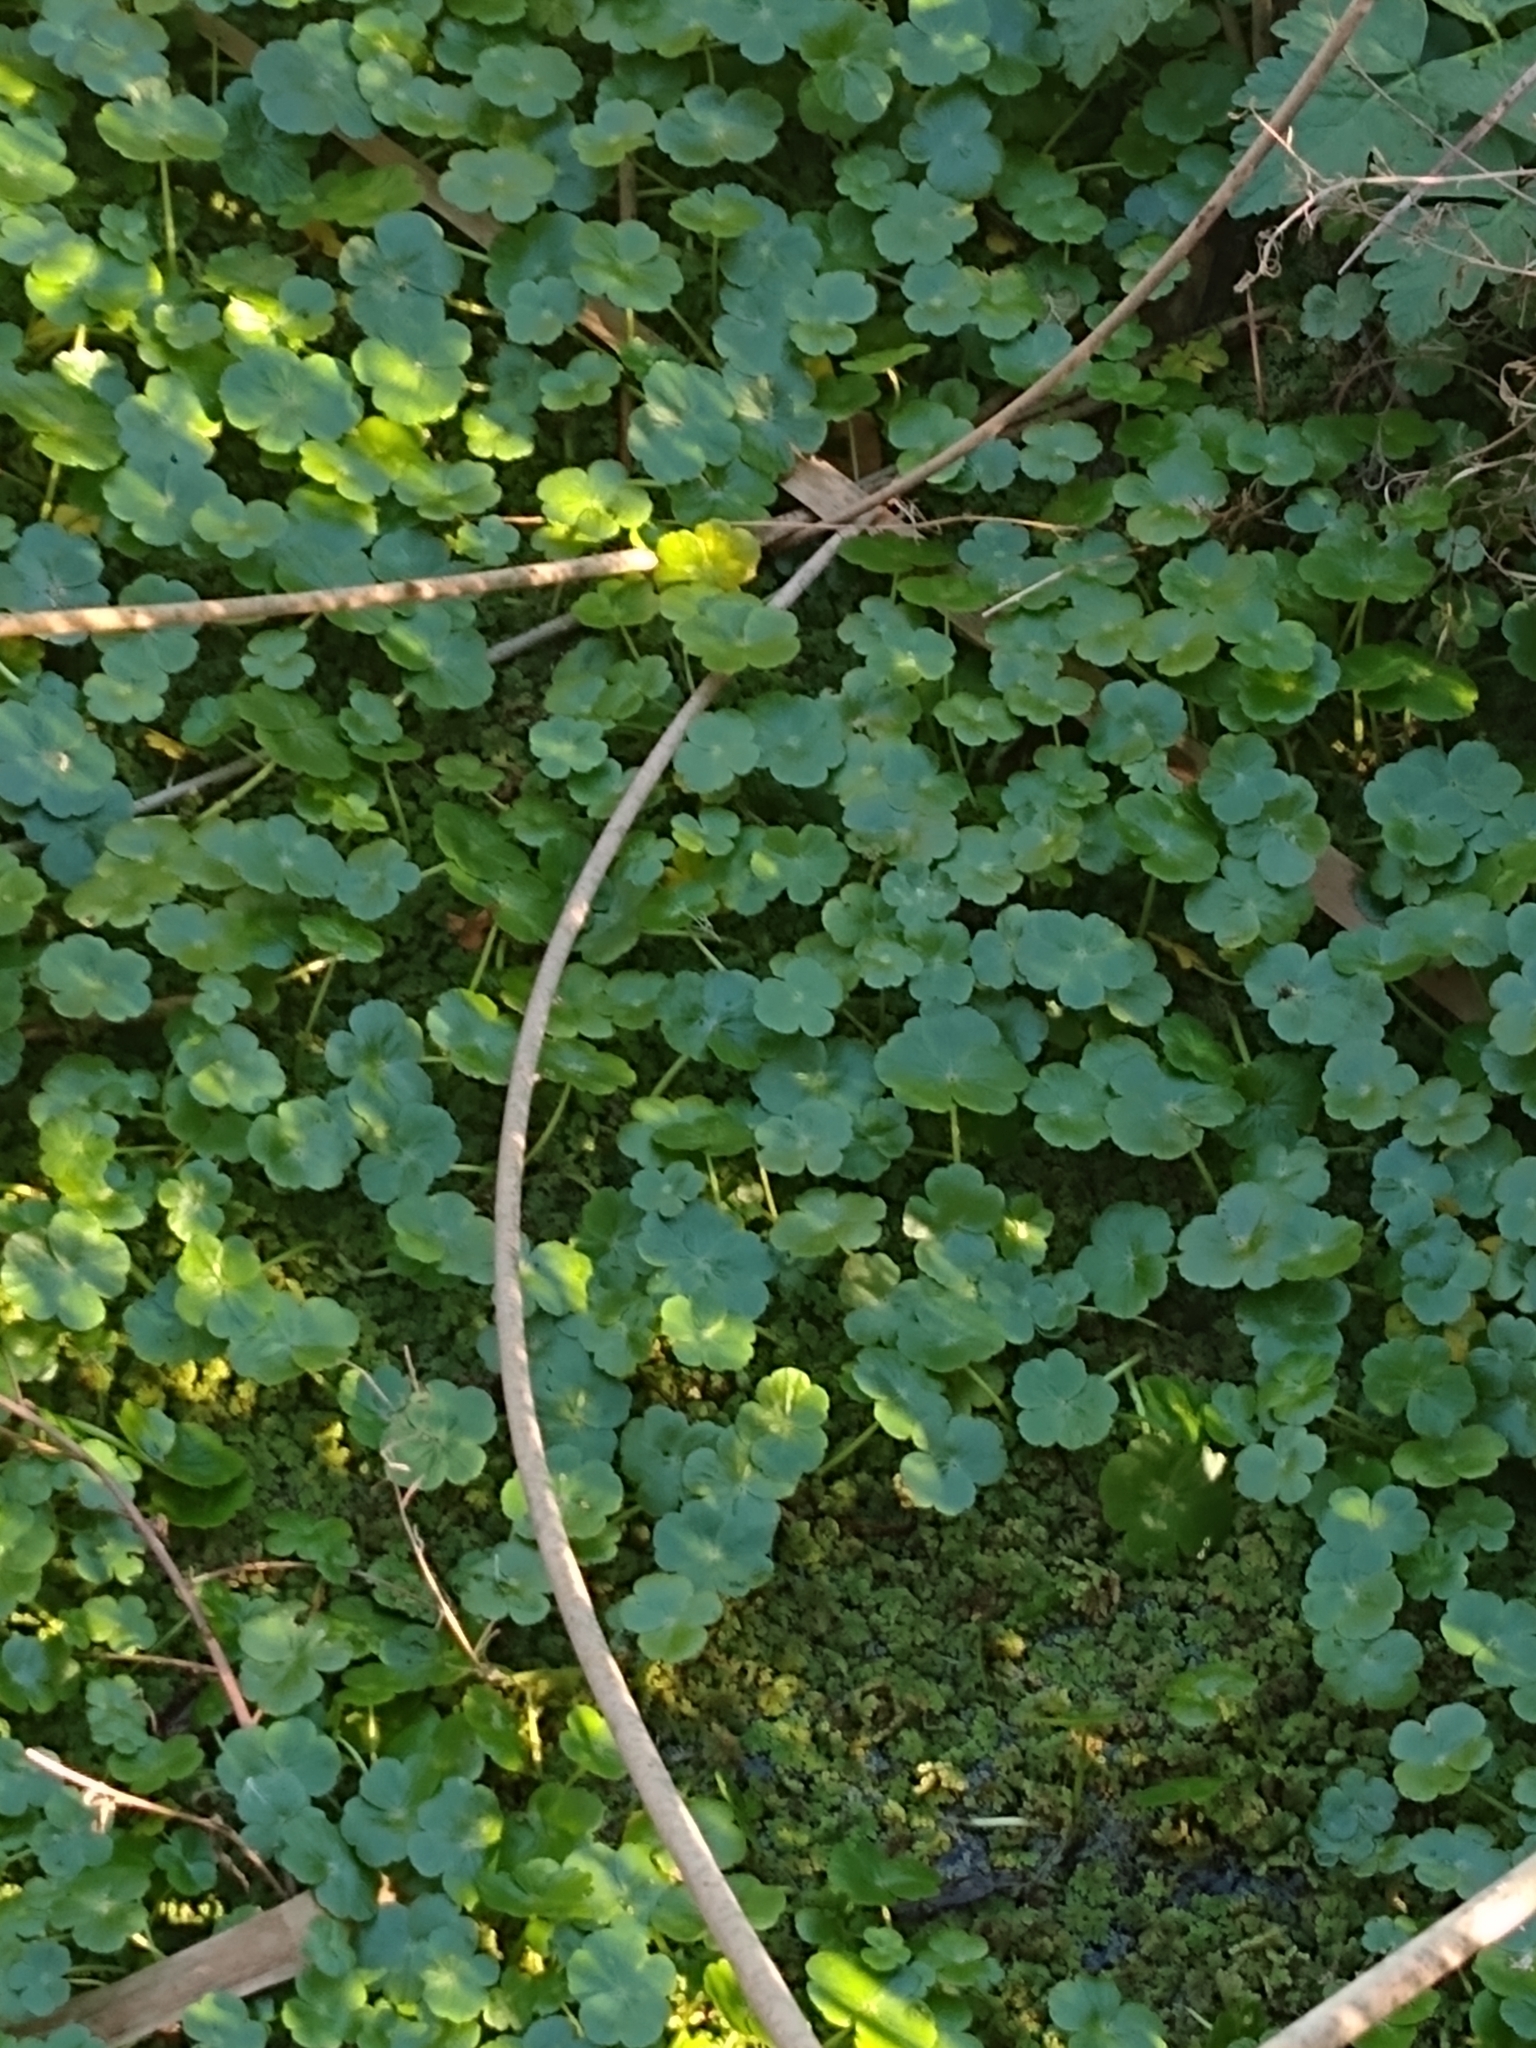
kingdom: Plantae
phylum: Tracheophyta
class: Magnoliopsida
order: Apiales
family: Araliaceae
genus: Hydrocotyle
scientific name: Hydrocotyle ranunculoides
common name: Floating pennywort
